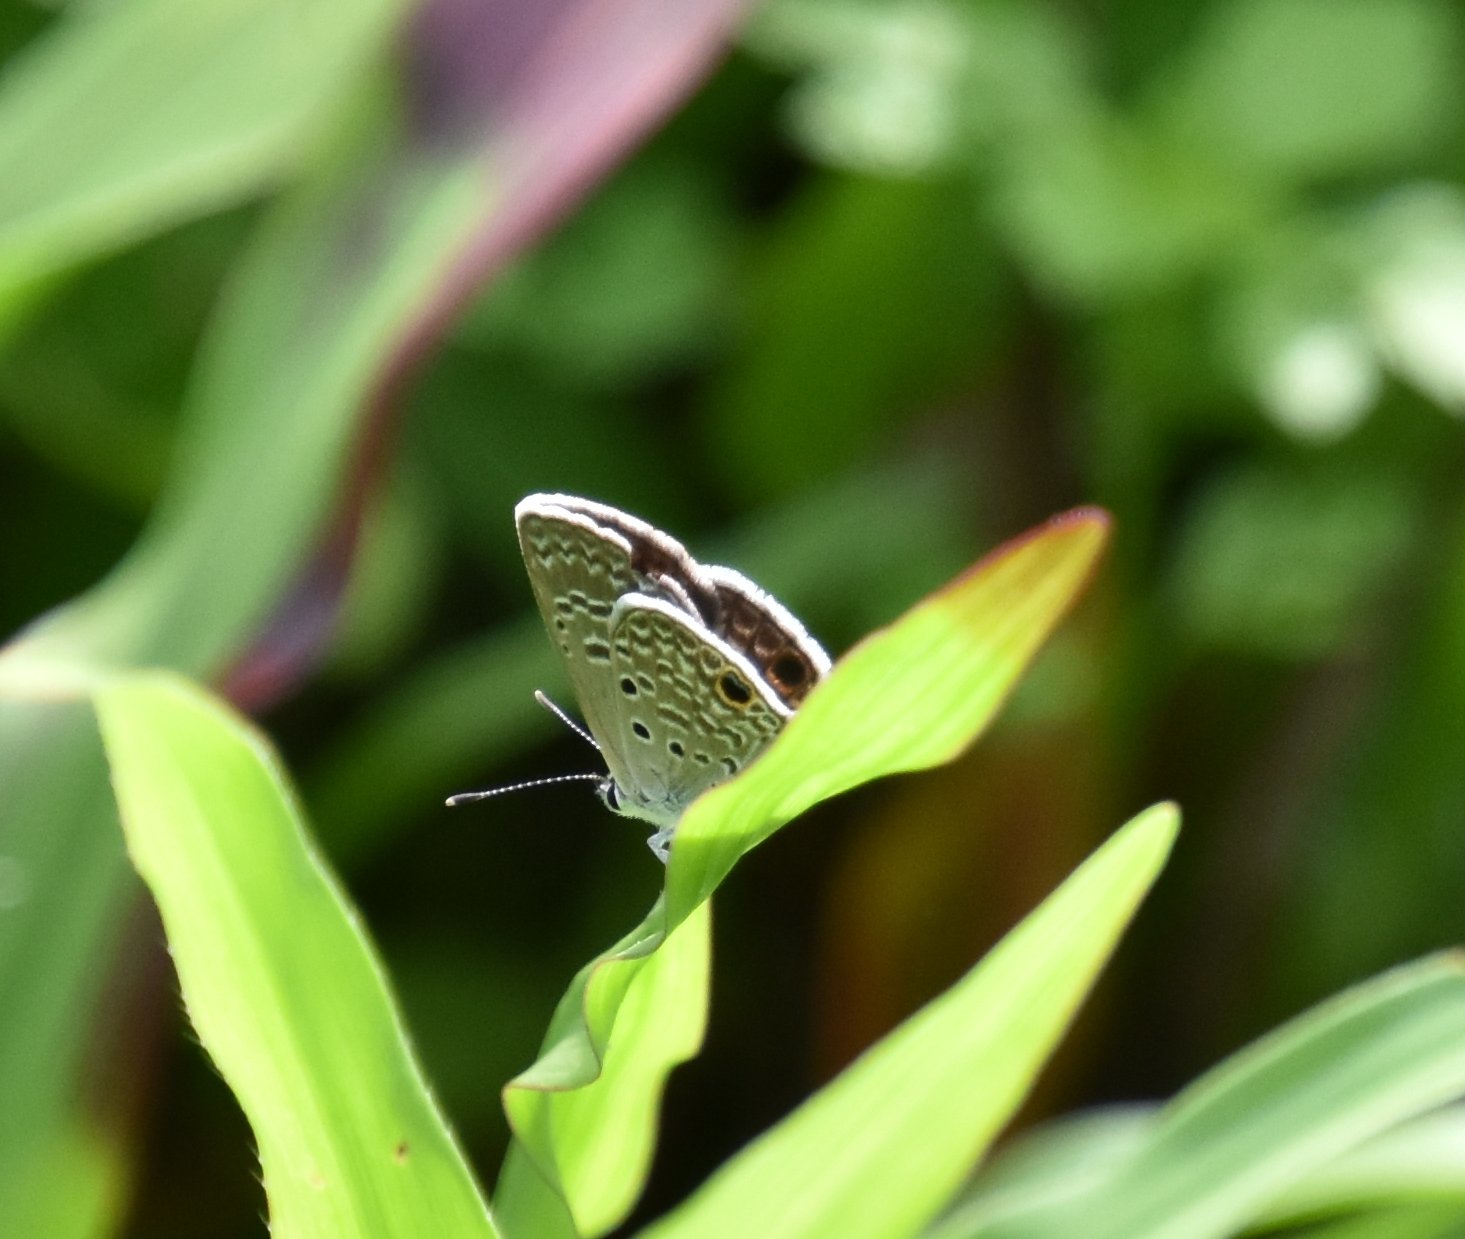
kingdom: Animalia
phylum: Arthropoda
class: Insecta
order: Lepidoptera
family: Lycaenidae
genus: Hemiargus
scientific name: Hemiargus ceraunus
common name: Ceraunus blue
